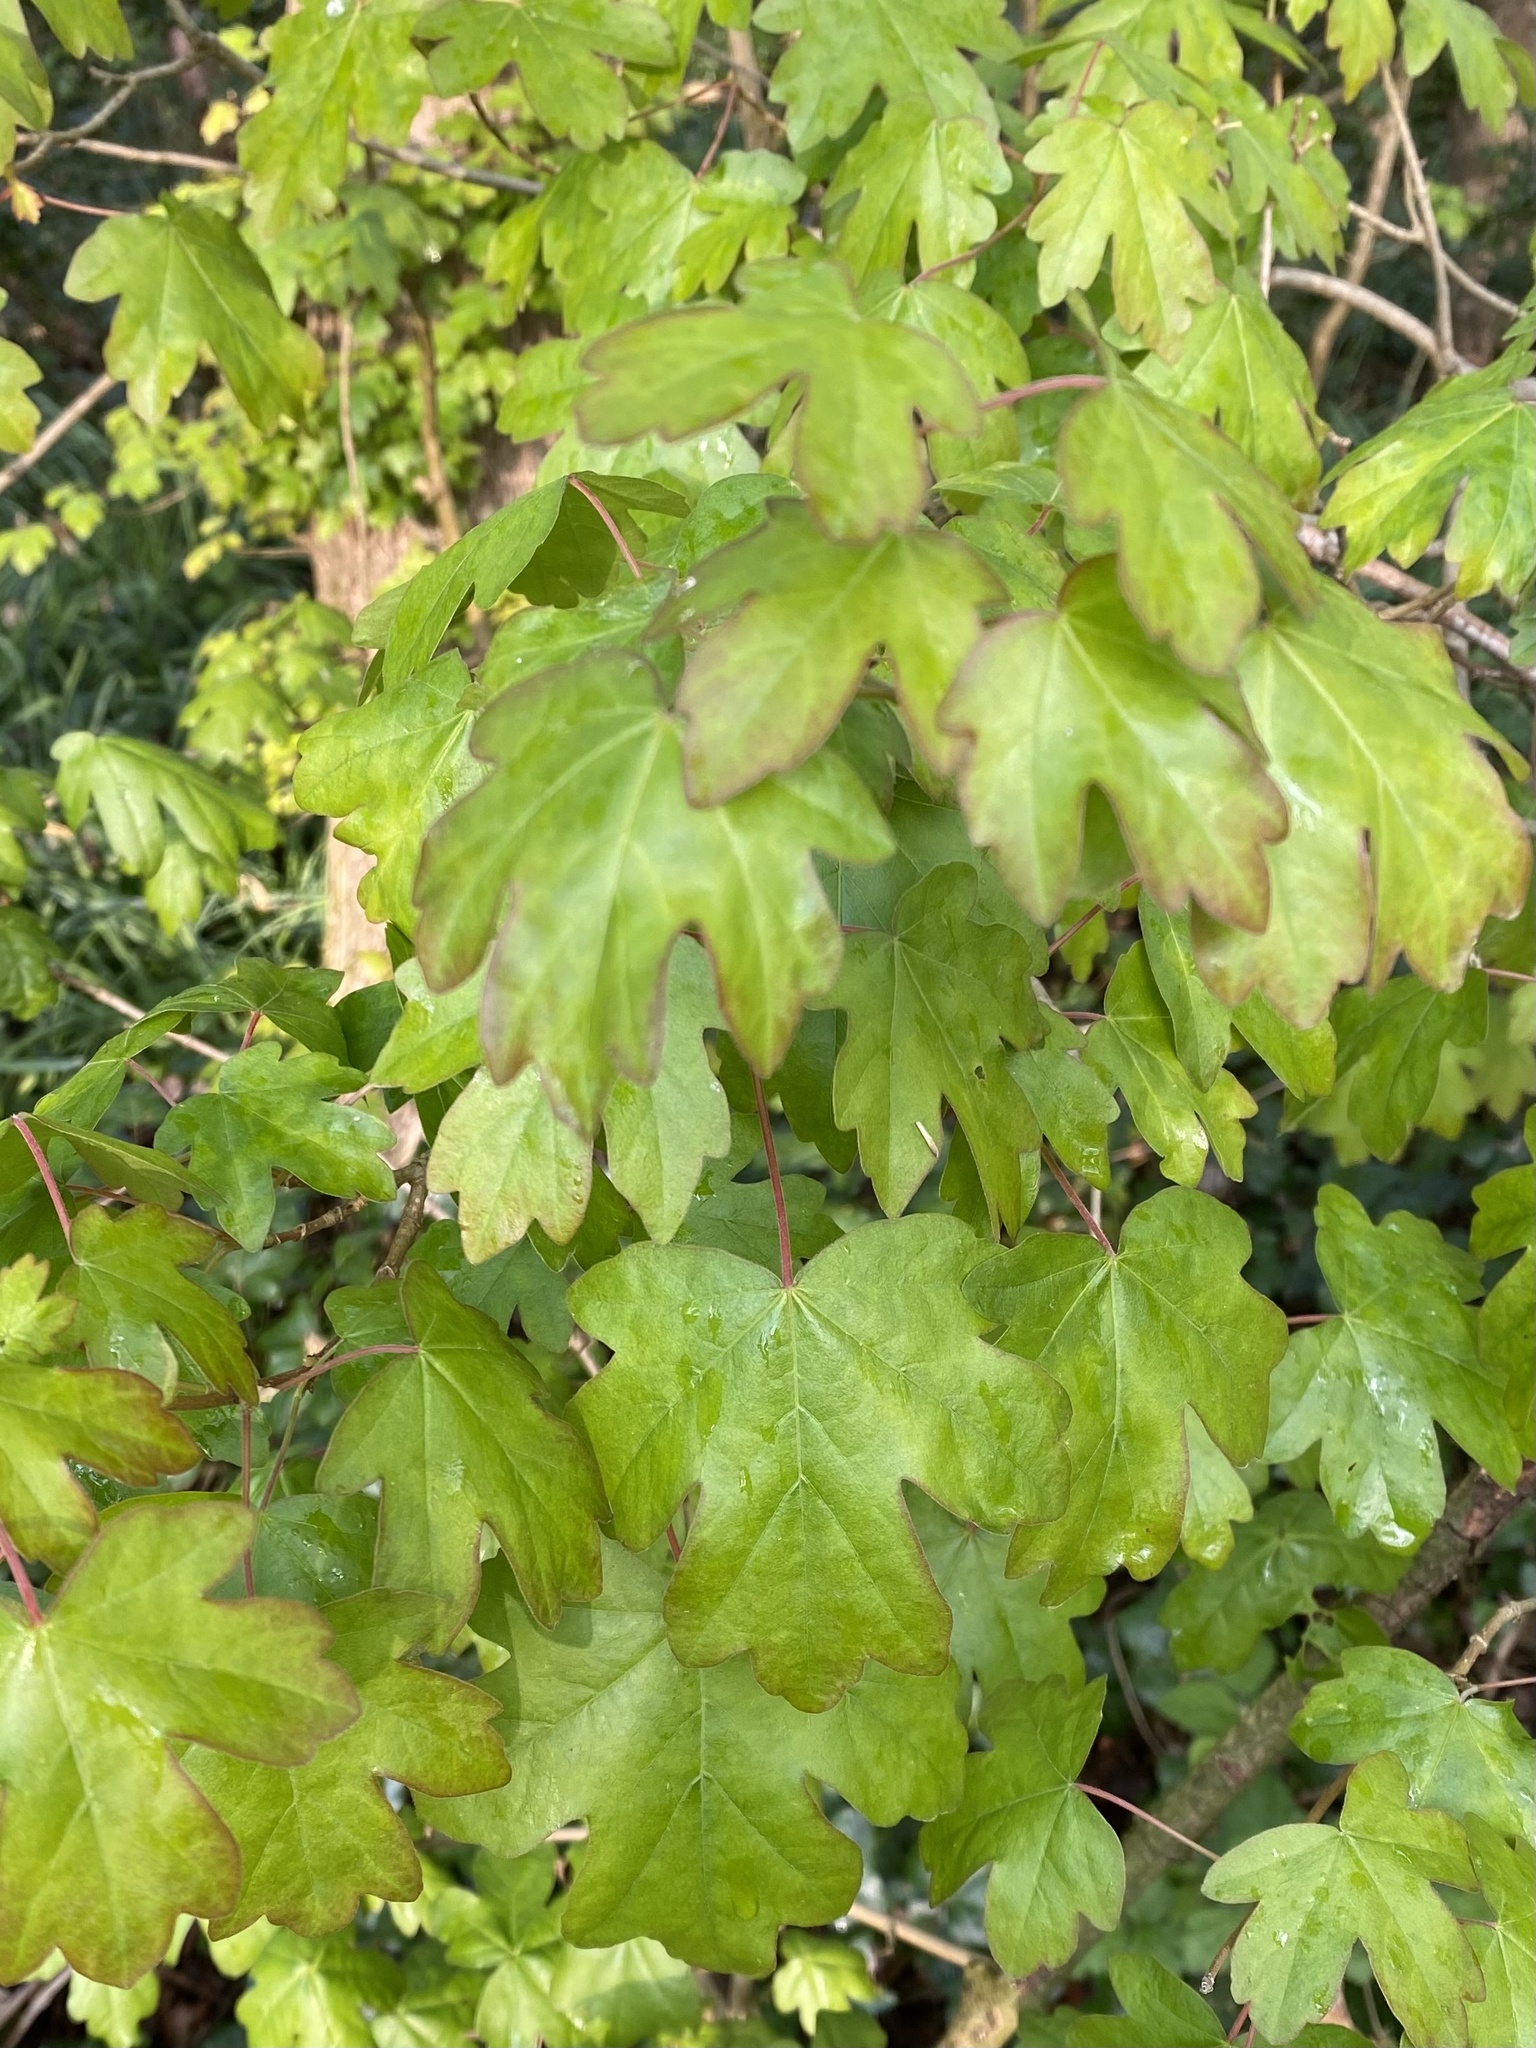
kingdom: Plantae
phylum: Tracheophyta
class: Magnoliopsida
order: Sapindales
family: Sapindaceae
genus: Acer
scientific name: Acer campestre
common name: Field maple
